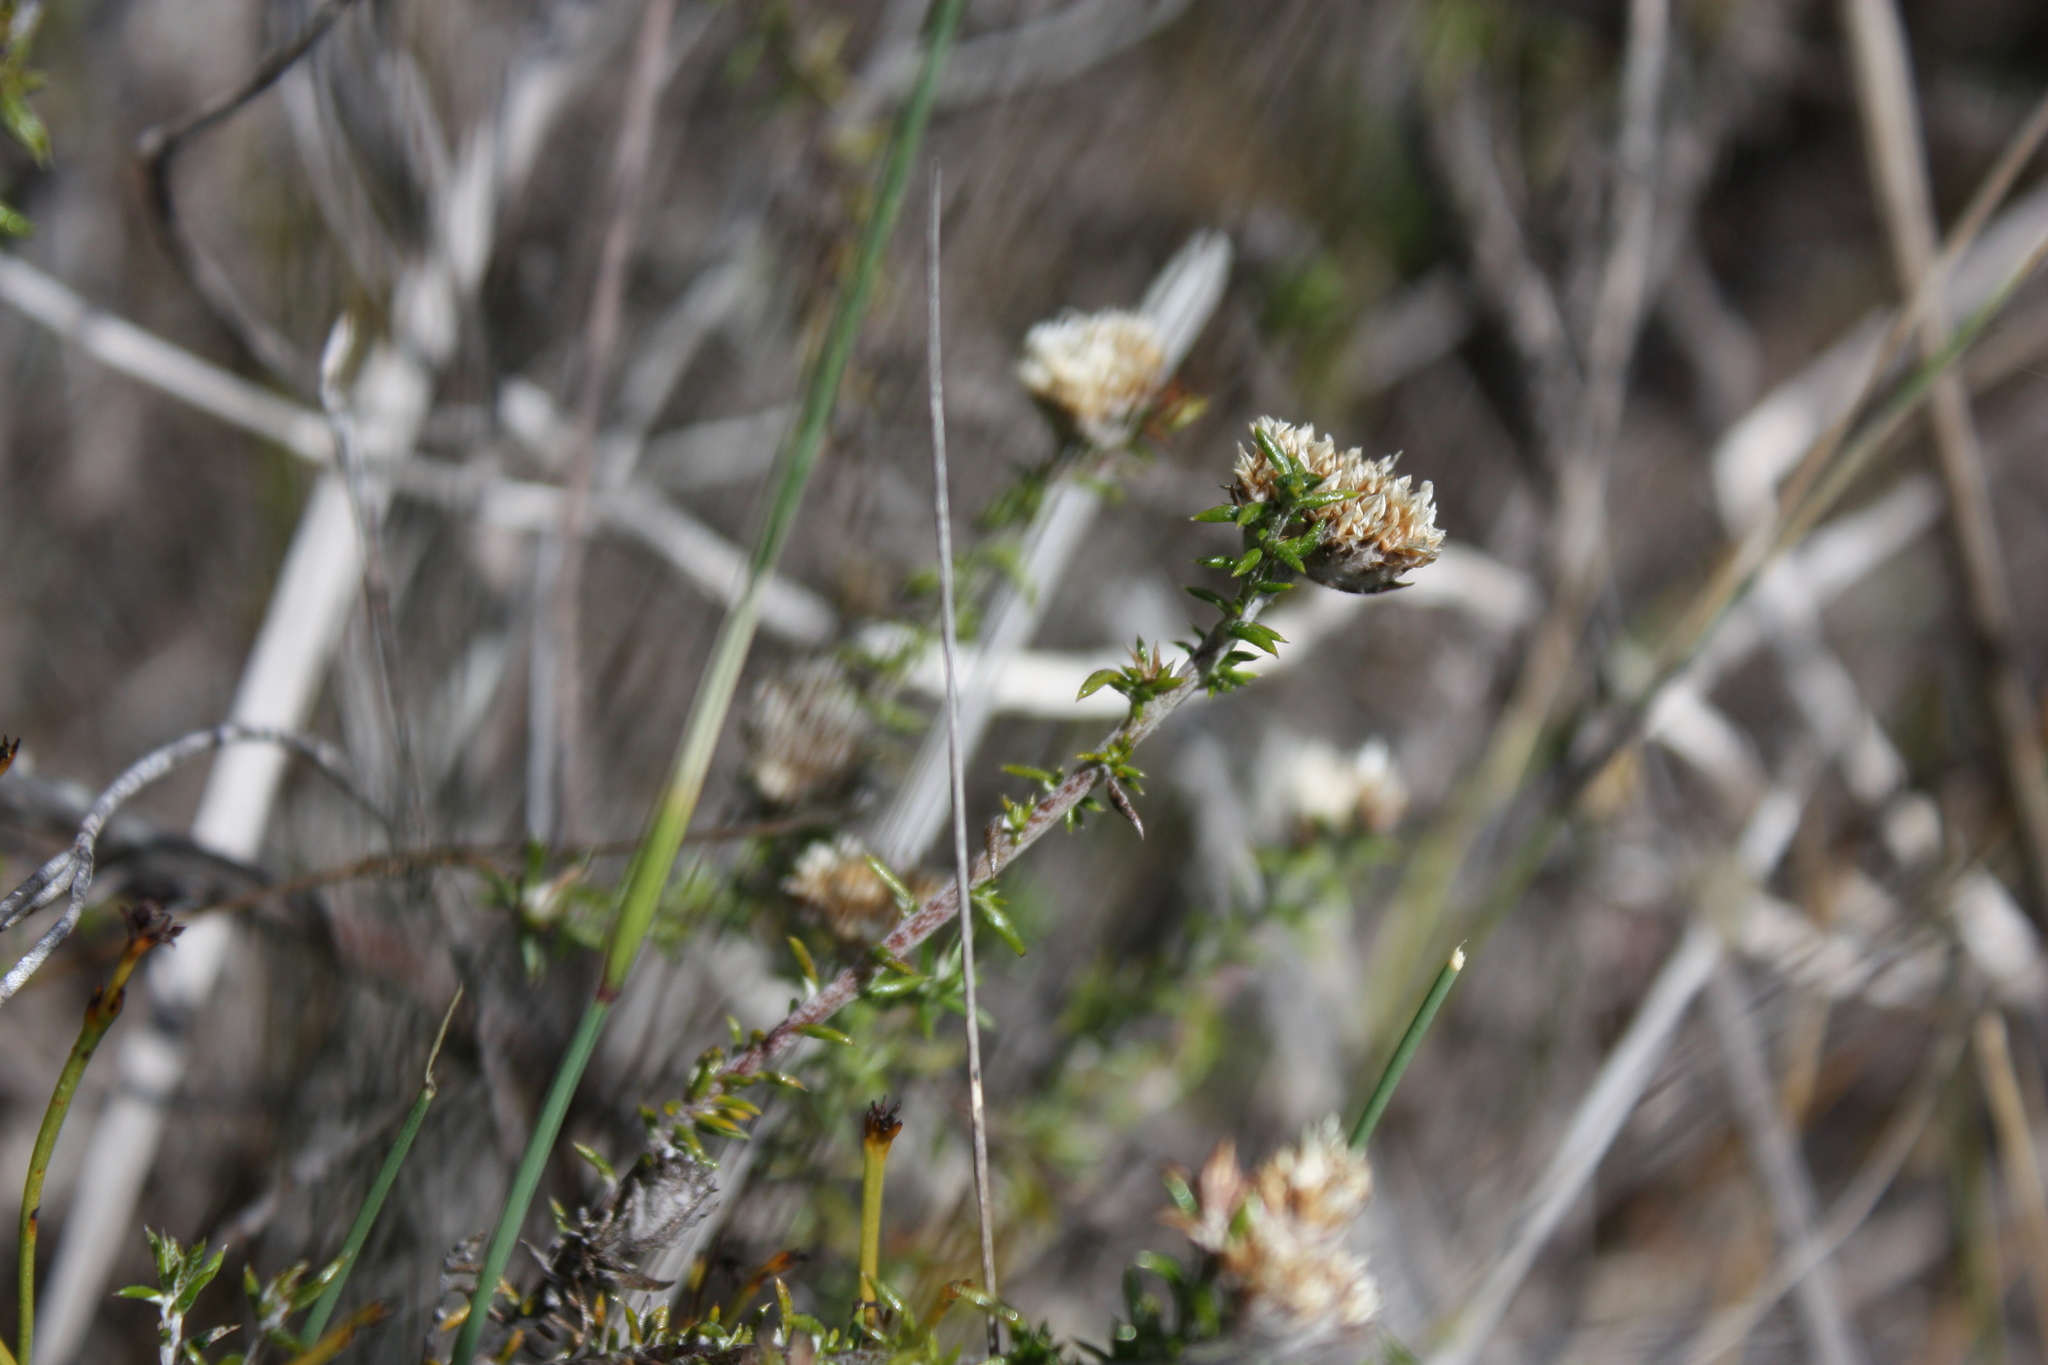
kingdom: Plantae
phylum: Tracheophyta
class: Magnoliopsida
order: Asterales
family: Asteraceae
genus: Metalasia
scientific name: Metalasia divergens
